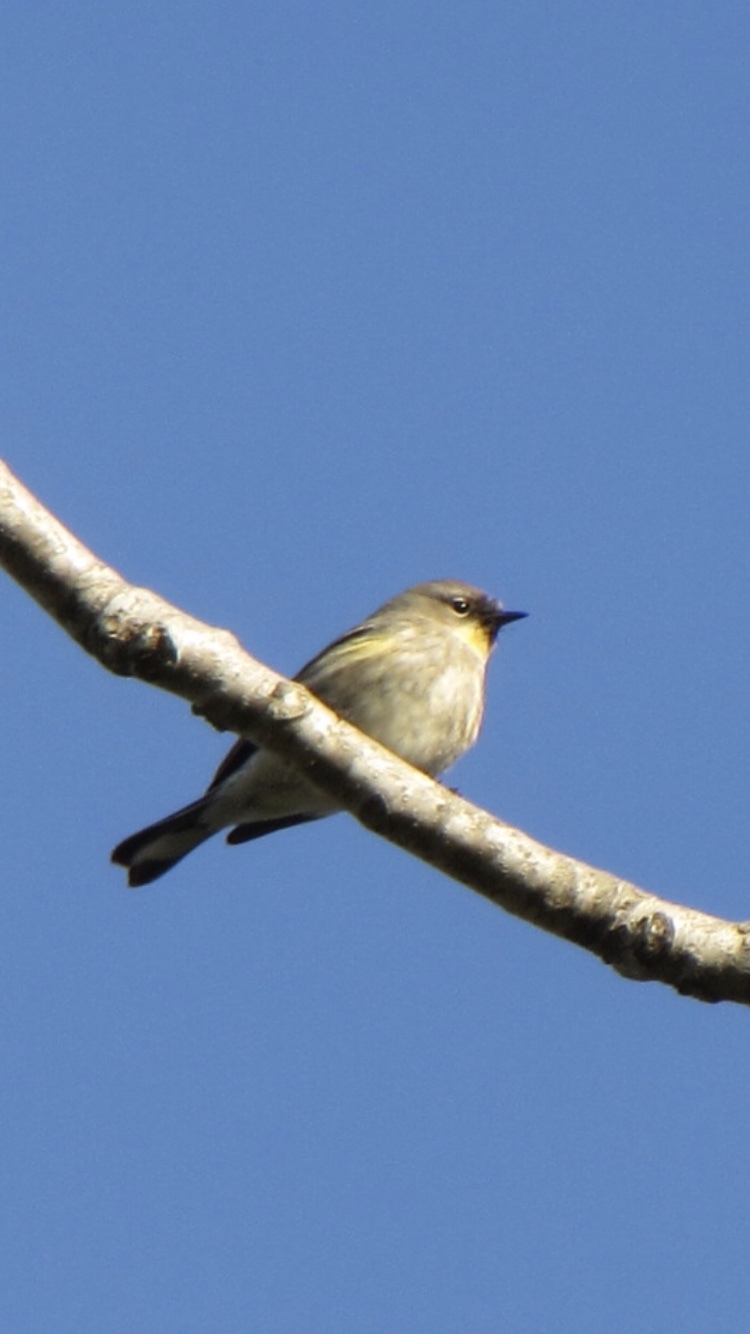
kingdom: Animalia
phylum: Chordata
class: Aves
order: Passeriformes
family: Parulidae
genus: Setophaga
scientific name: Setophaga coronata
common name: Myrtle warbler
